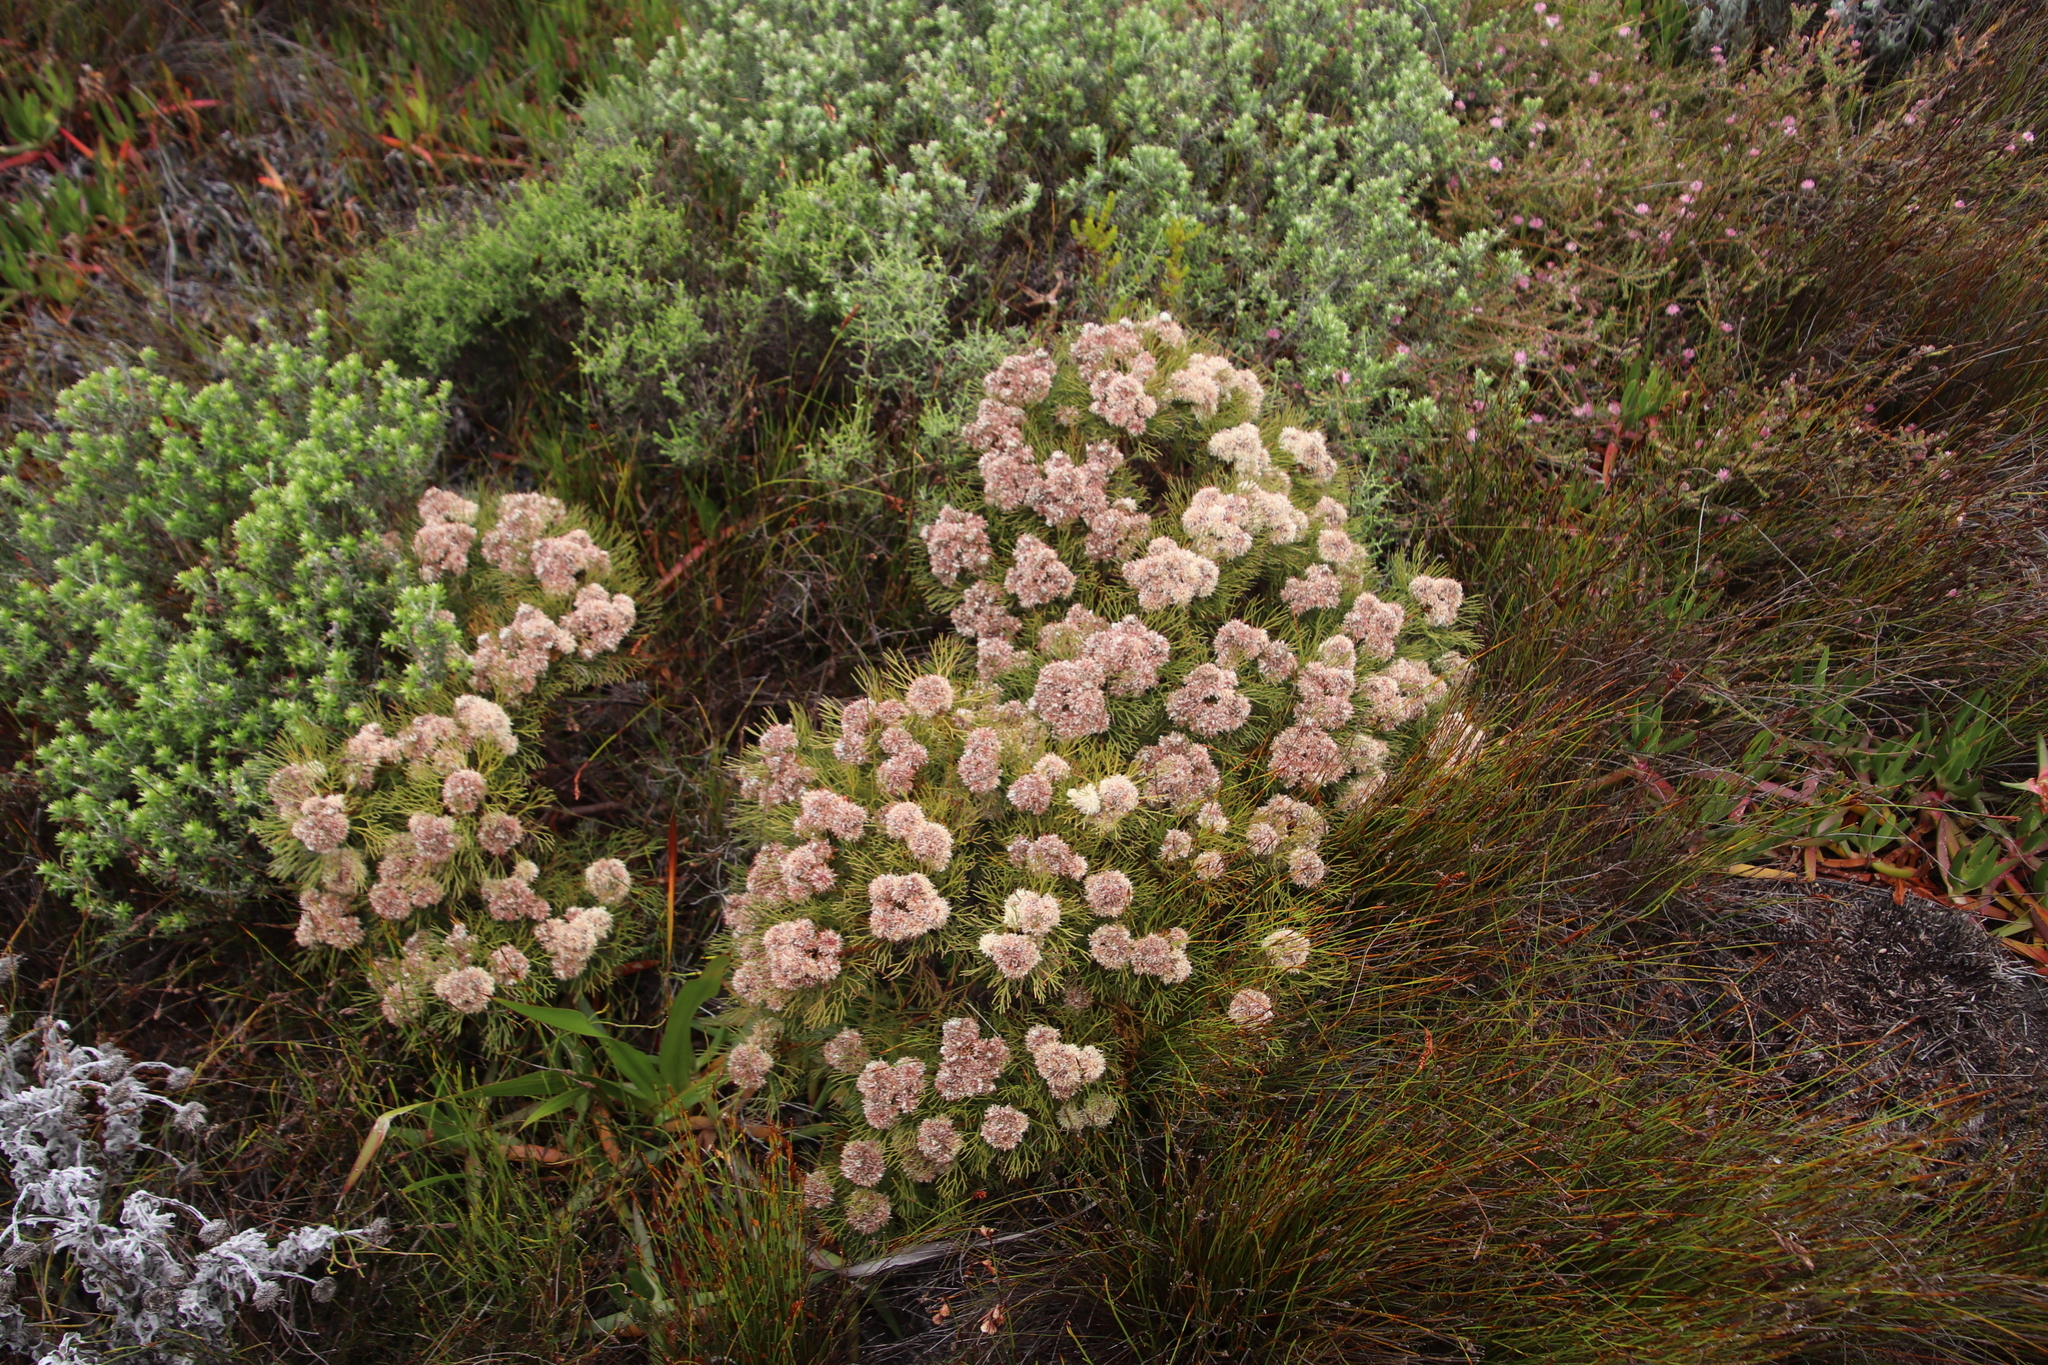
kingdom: Plantae
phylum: Tracheophyta
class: Magnoliopsida
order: Proteales
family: Proteaceae
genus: Serruria
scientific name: Serruria glomerata
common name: Cluster spiderhead
